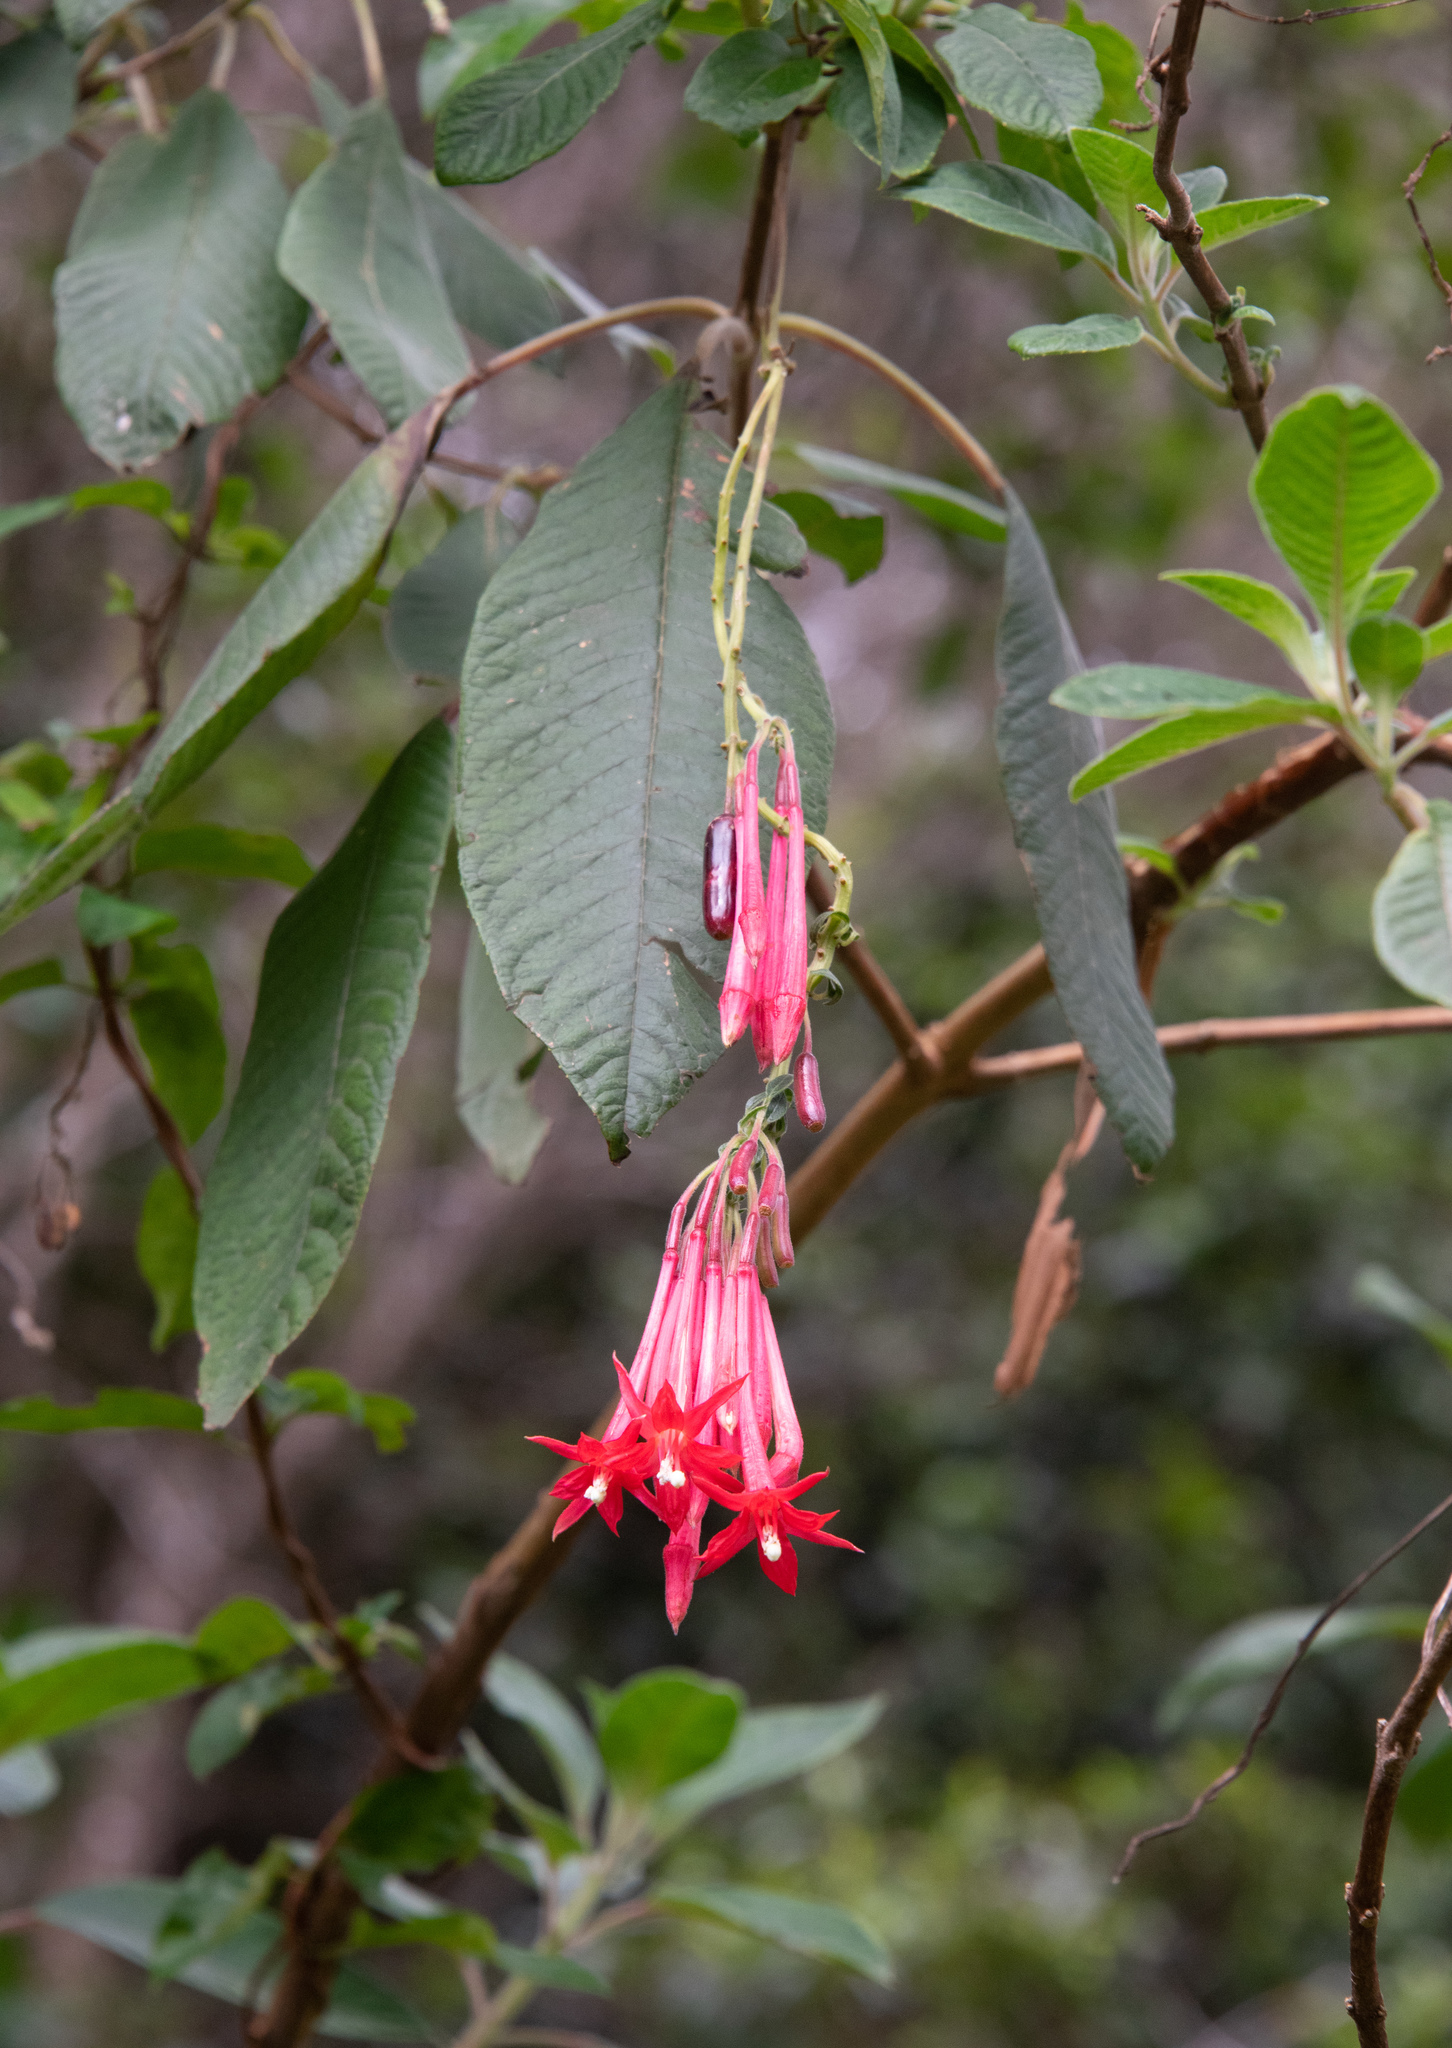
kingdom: Plantae
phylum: Tracheophyta
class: Magnoliopsida
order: Myrtales
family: Onagraceae
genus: Fuchsia
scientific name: Fuchsia boliviana
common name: Bolivian fuchsia
